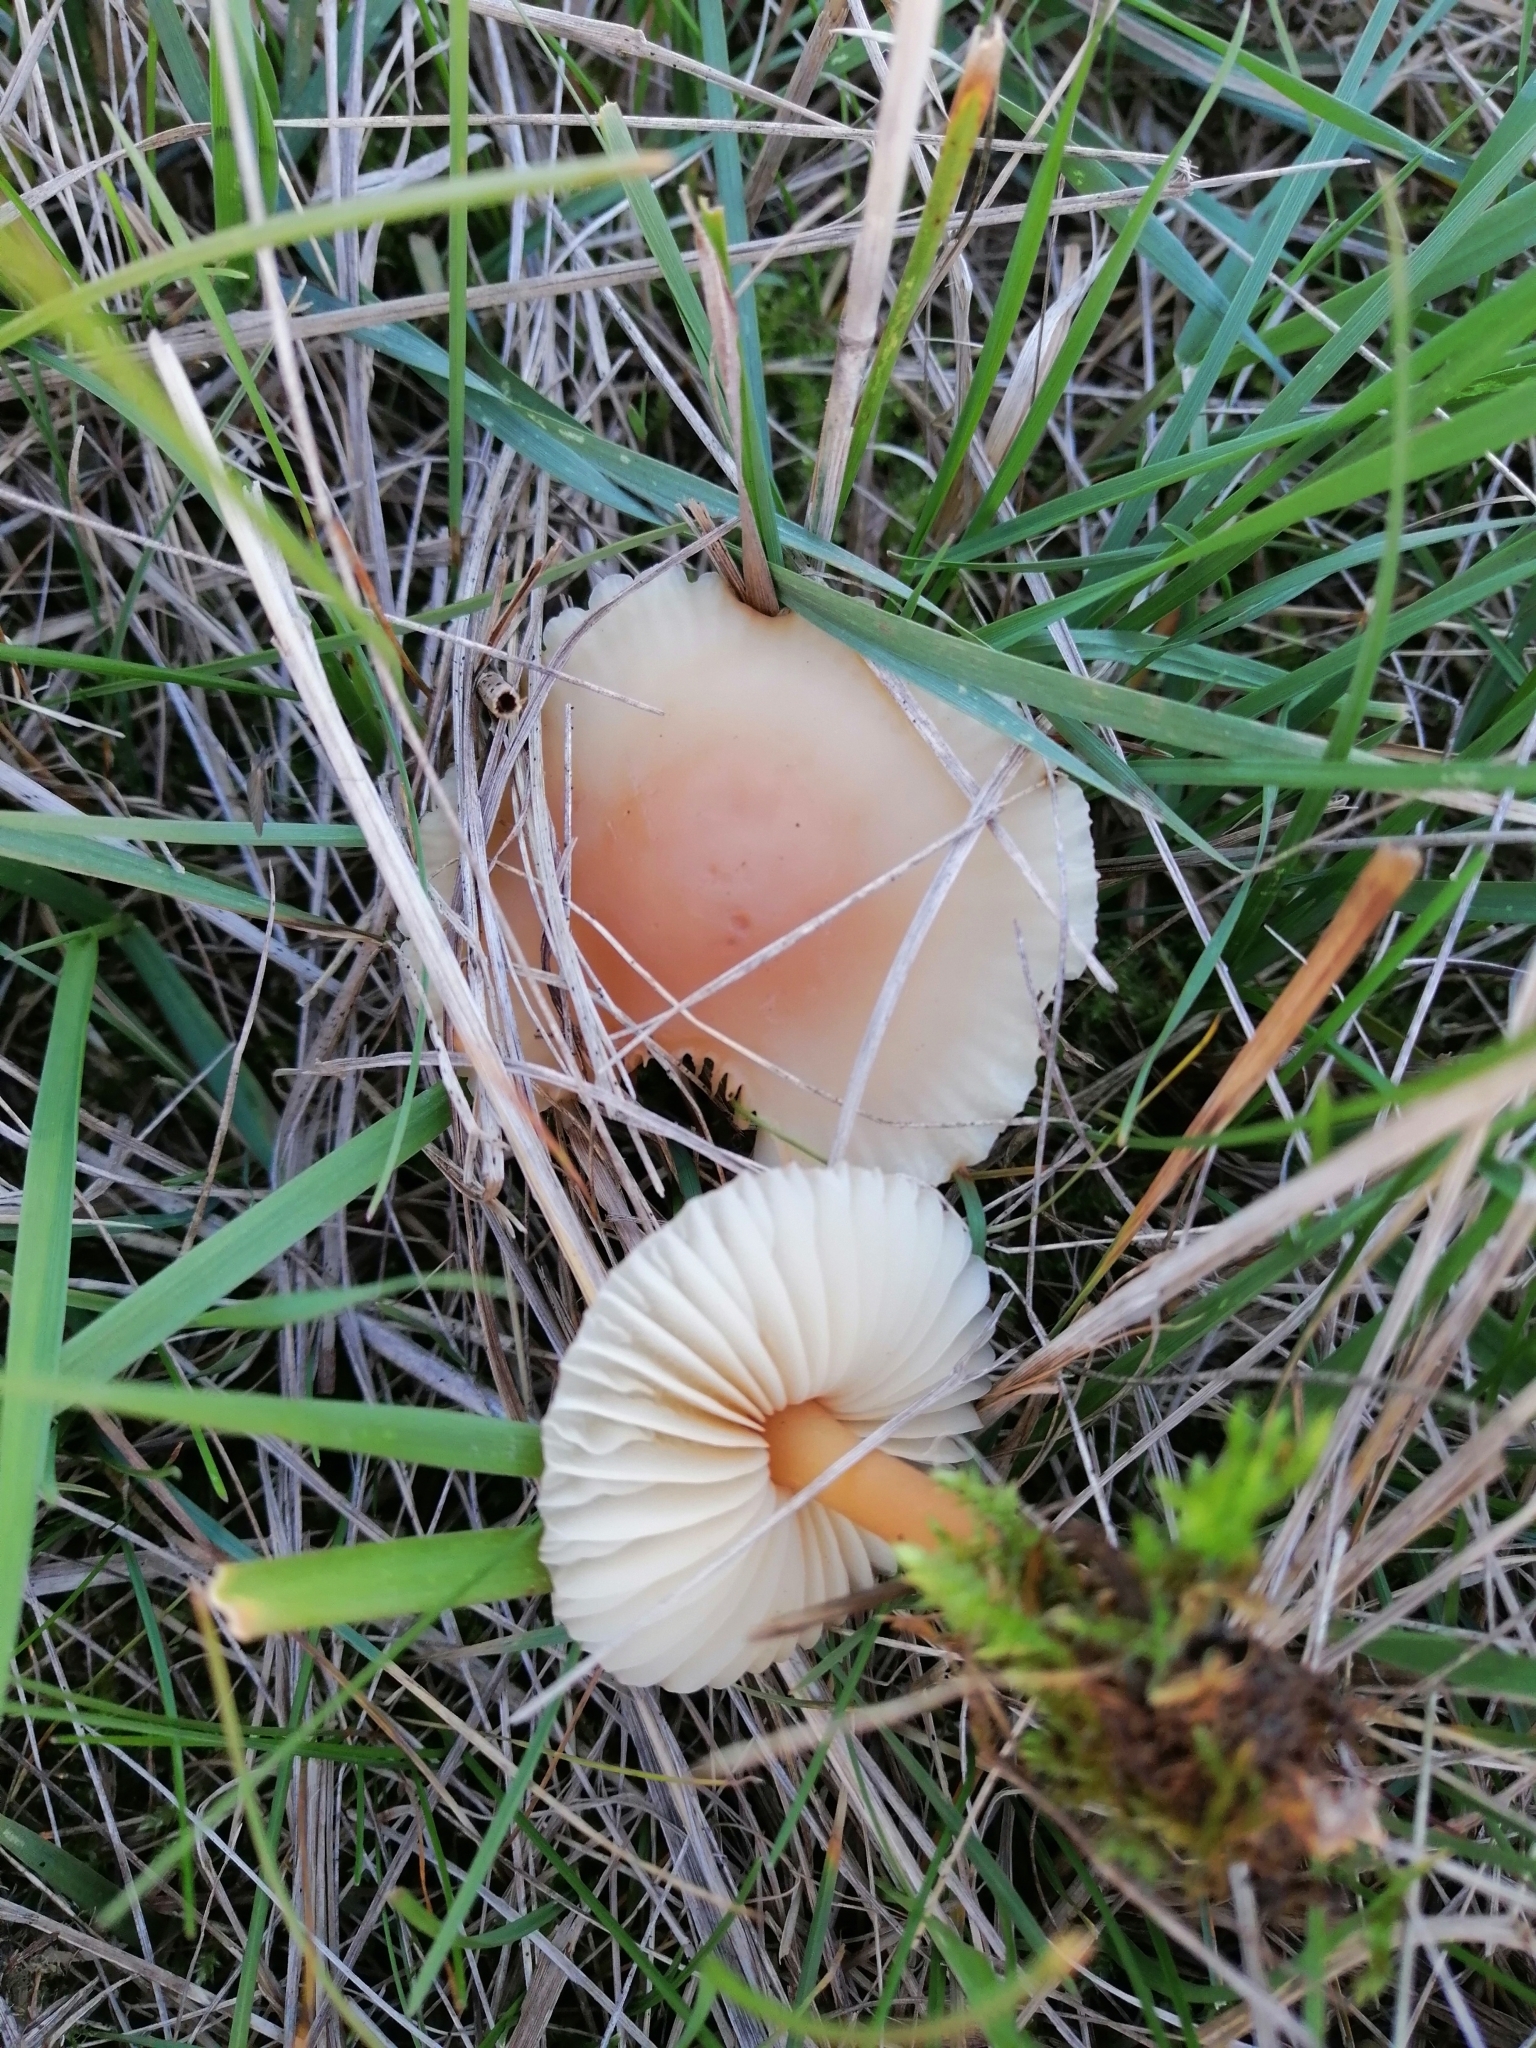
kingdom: Fungi
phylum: Basidiomycota
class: Agaricomycetes
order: Agaricales
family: Marasmiaceae
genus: Marasmius
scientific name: Marasmius oreades
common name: Fairy ring champignon
